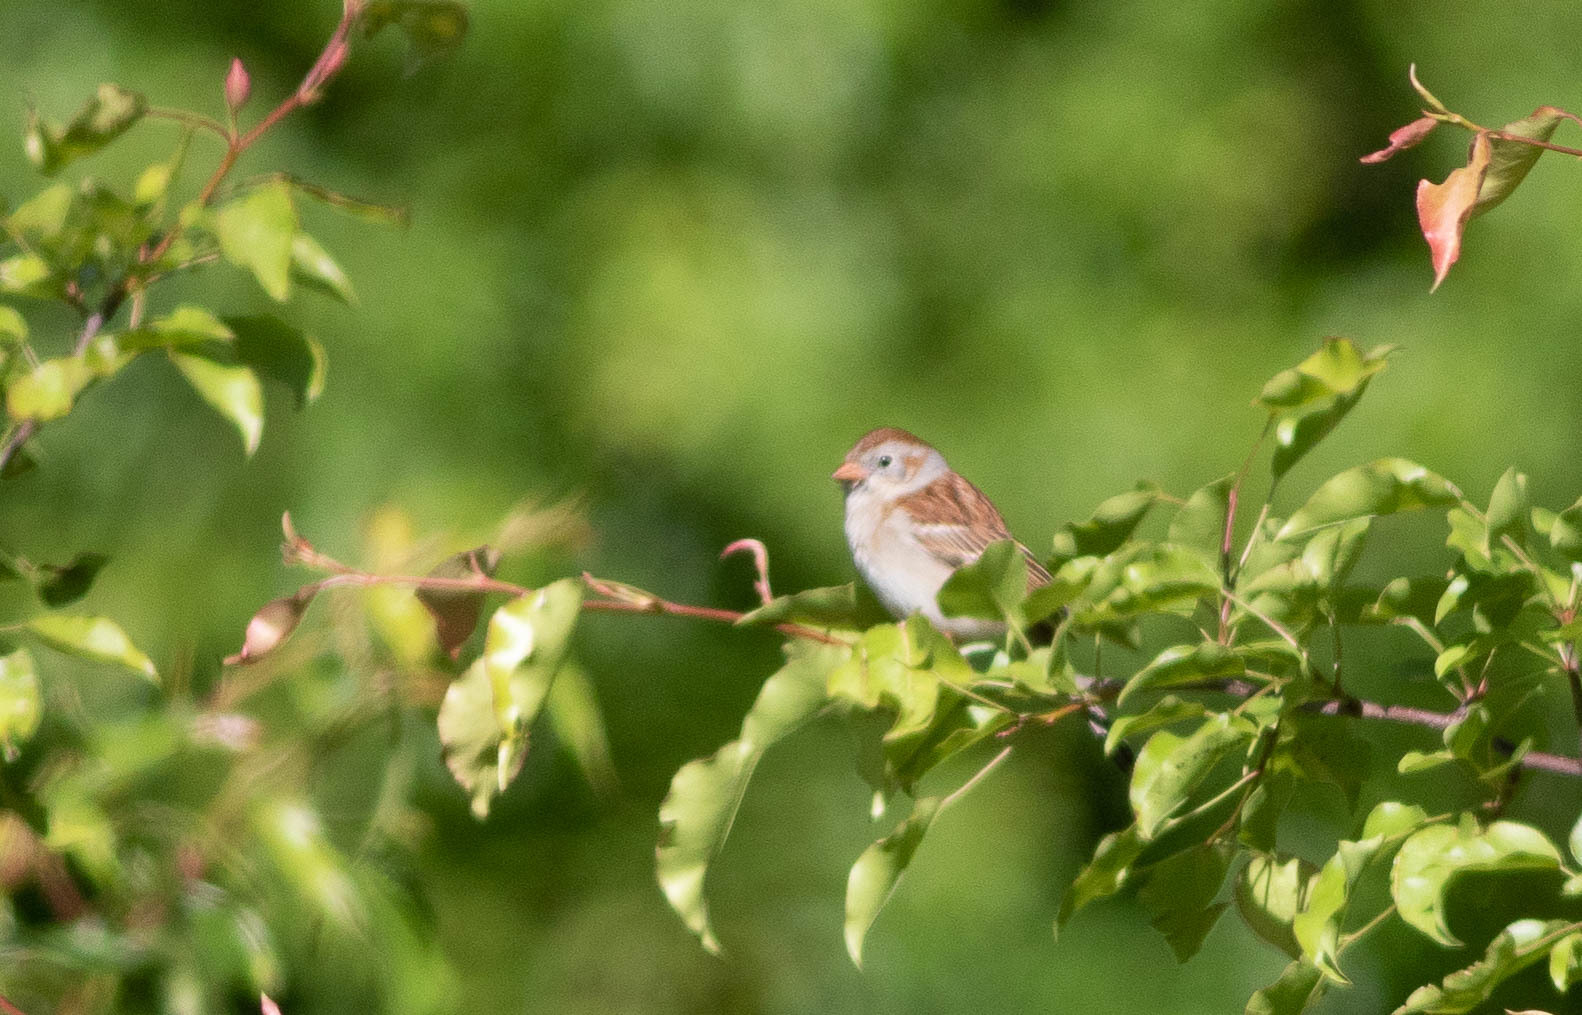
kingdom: Animalia
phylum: Chordata
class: Aves
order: Passeriformes
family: Passerellidae
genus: Spizella
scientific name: Spizella pusilla
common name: Field sparrow
